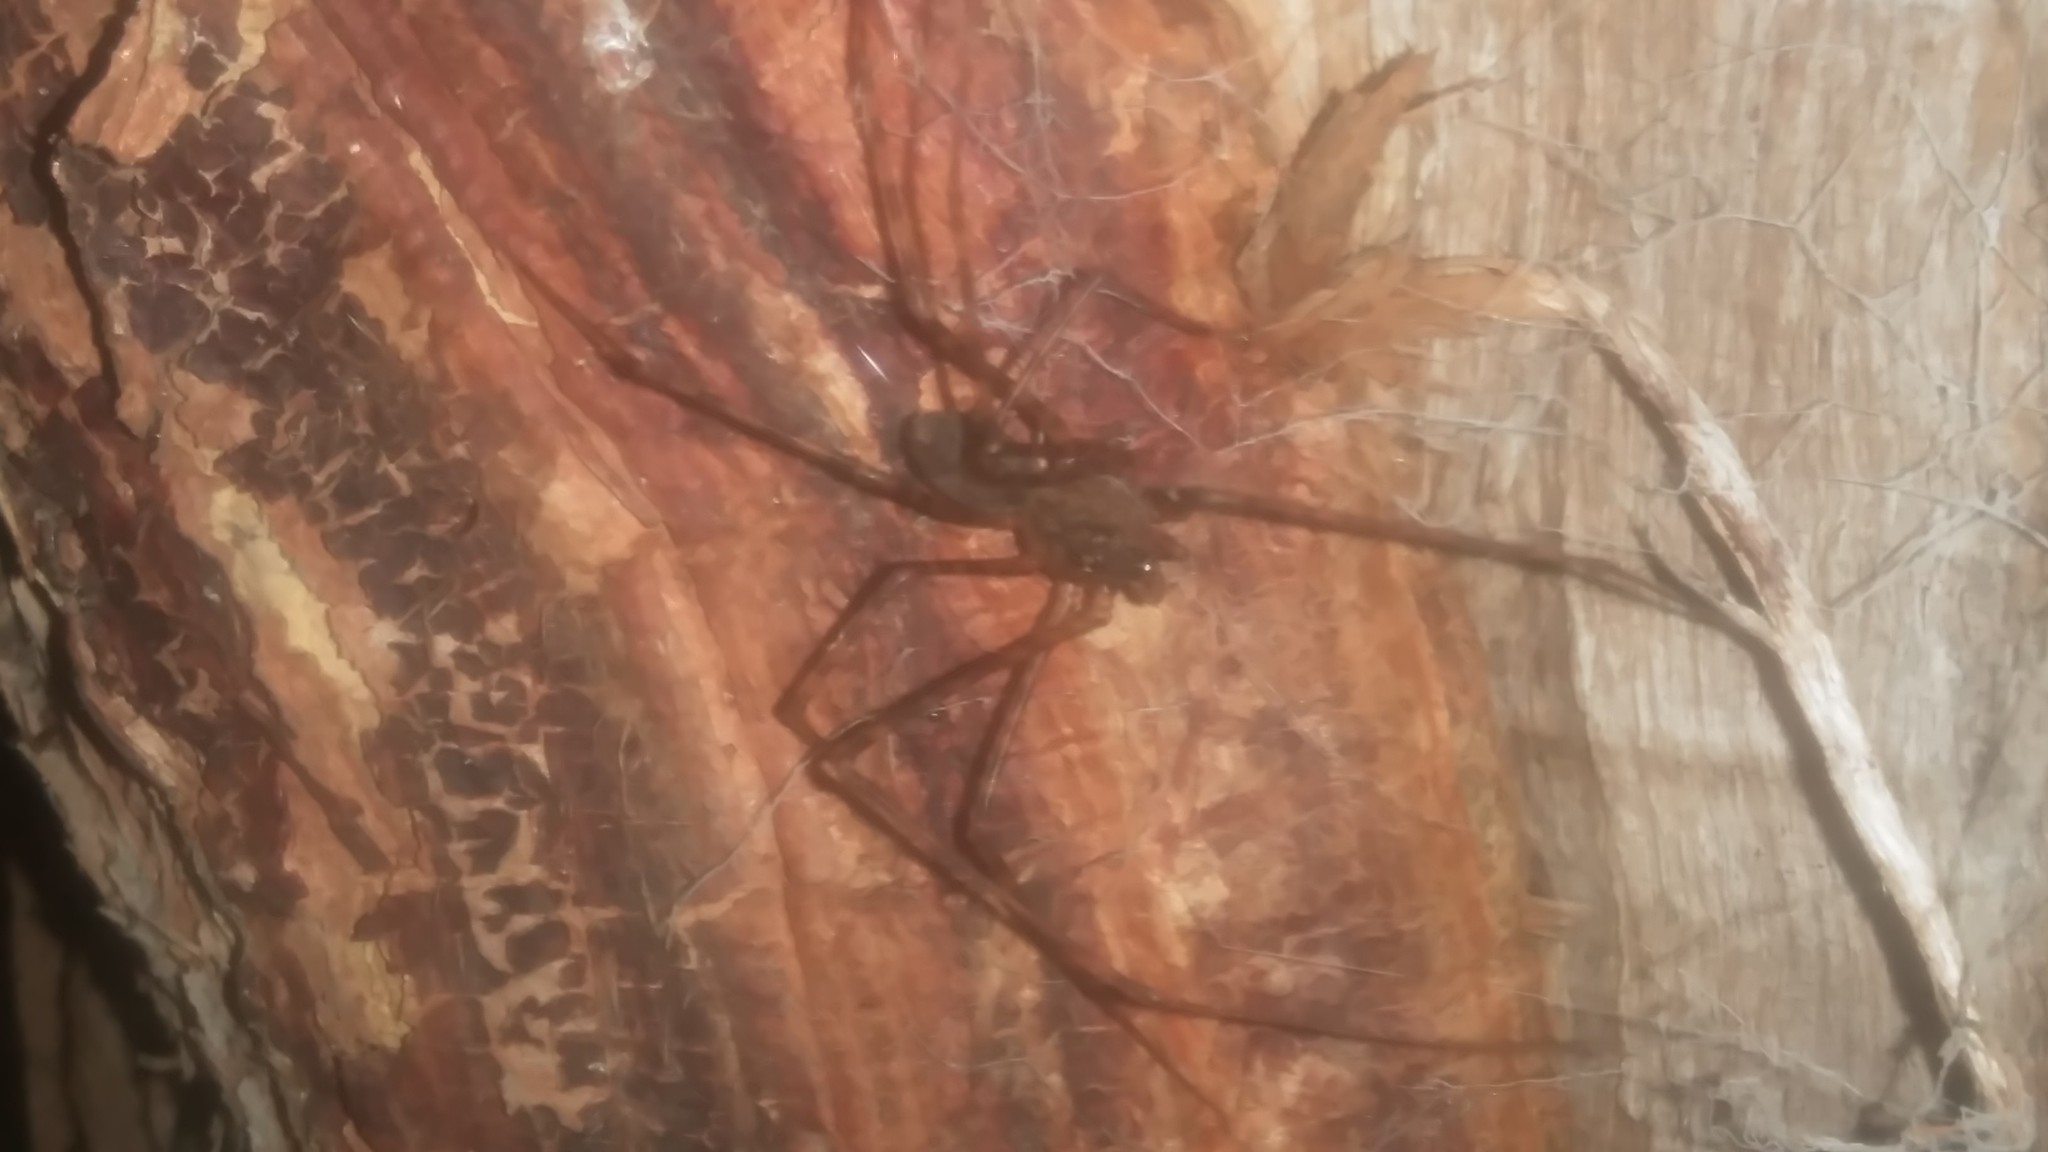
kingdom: Animalia
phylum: Arthropoda
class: Arachnida
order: Araneae
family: Scytodidae
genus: Scytodes
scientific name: Scytodes globula
